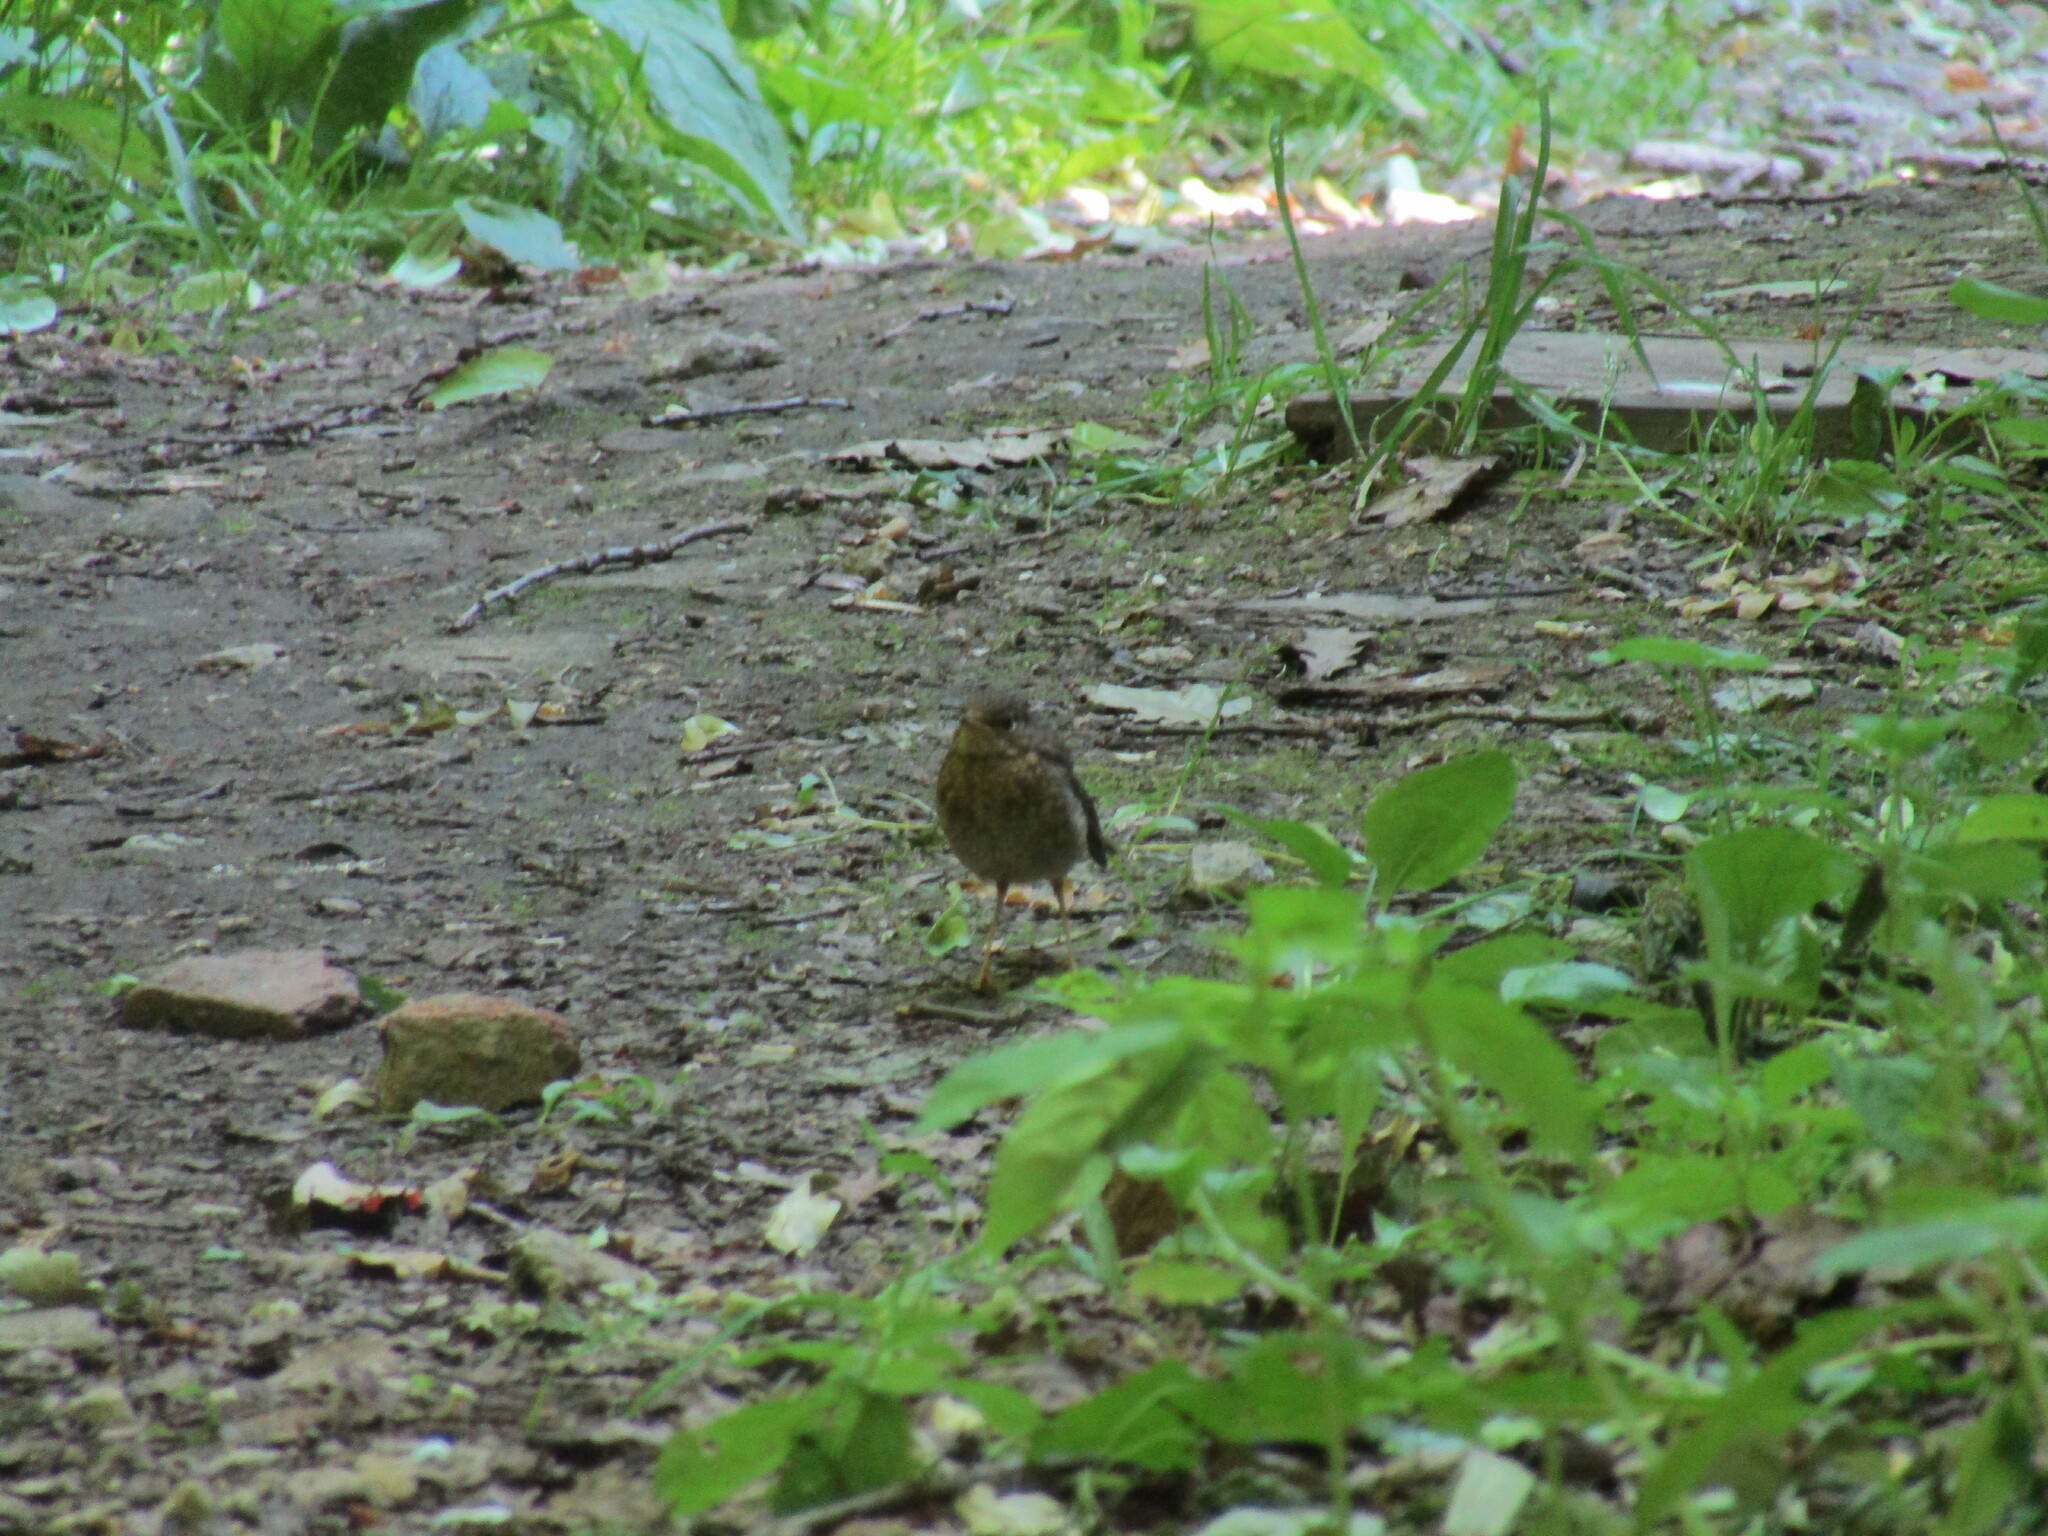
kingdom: Animalia
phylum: Chordata
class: Aves
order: Passeriformes
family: Muscicapidae
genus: Erithacus
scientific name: Erithacus rubecula
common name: European robin
